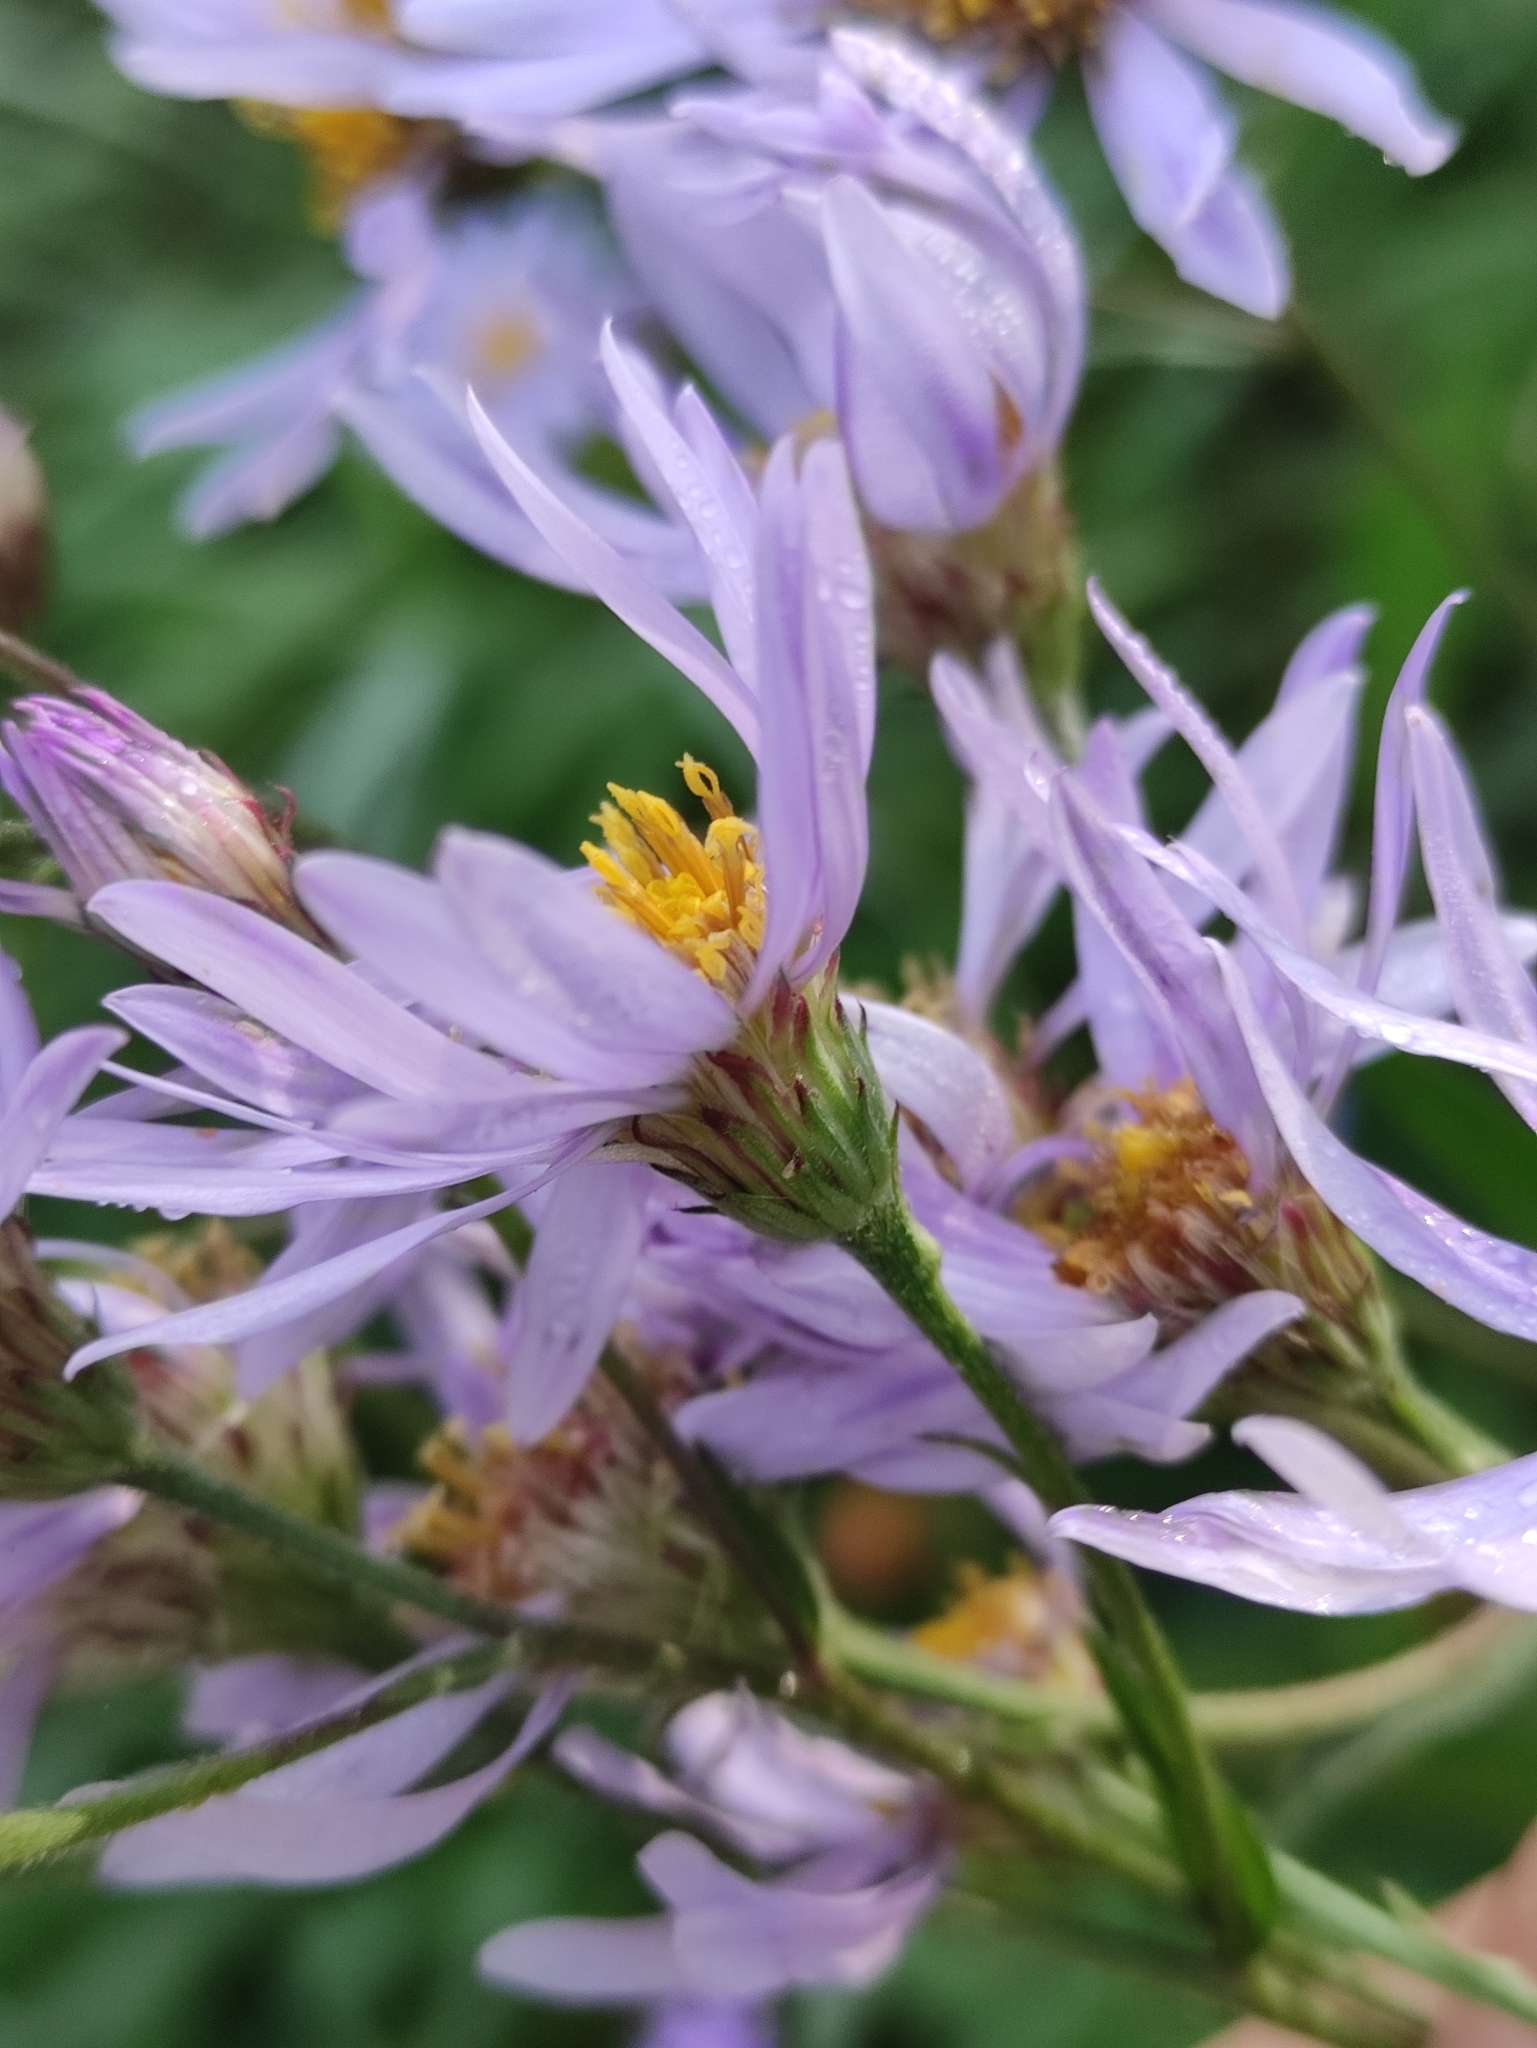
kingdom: Plantae
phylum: Tracheophyta
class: Magnoliopsida
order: Asterales
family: Asteraceae
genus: Aster
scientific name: Aster tataricus
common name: Tatarian aster
